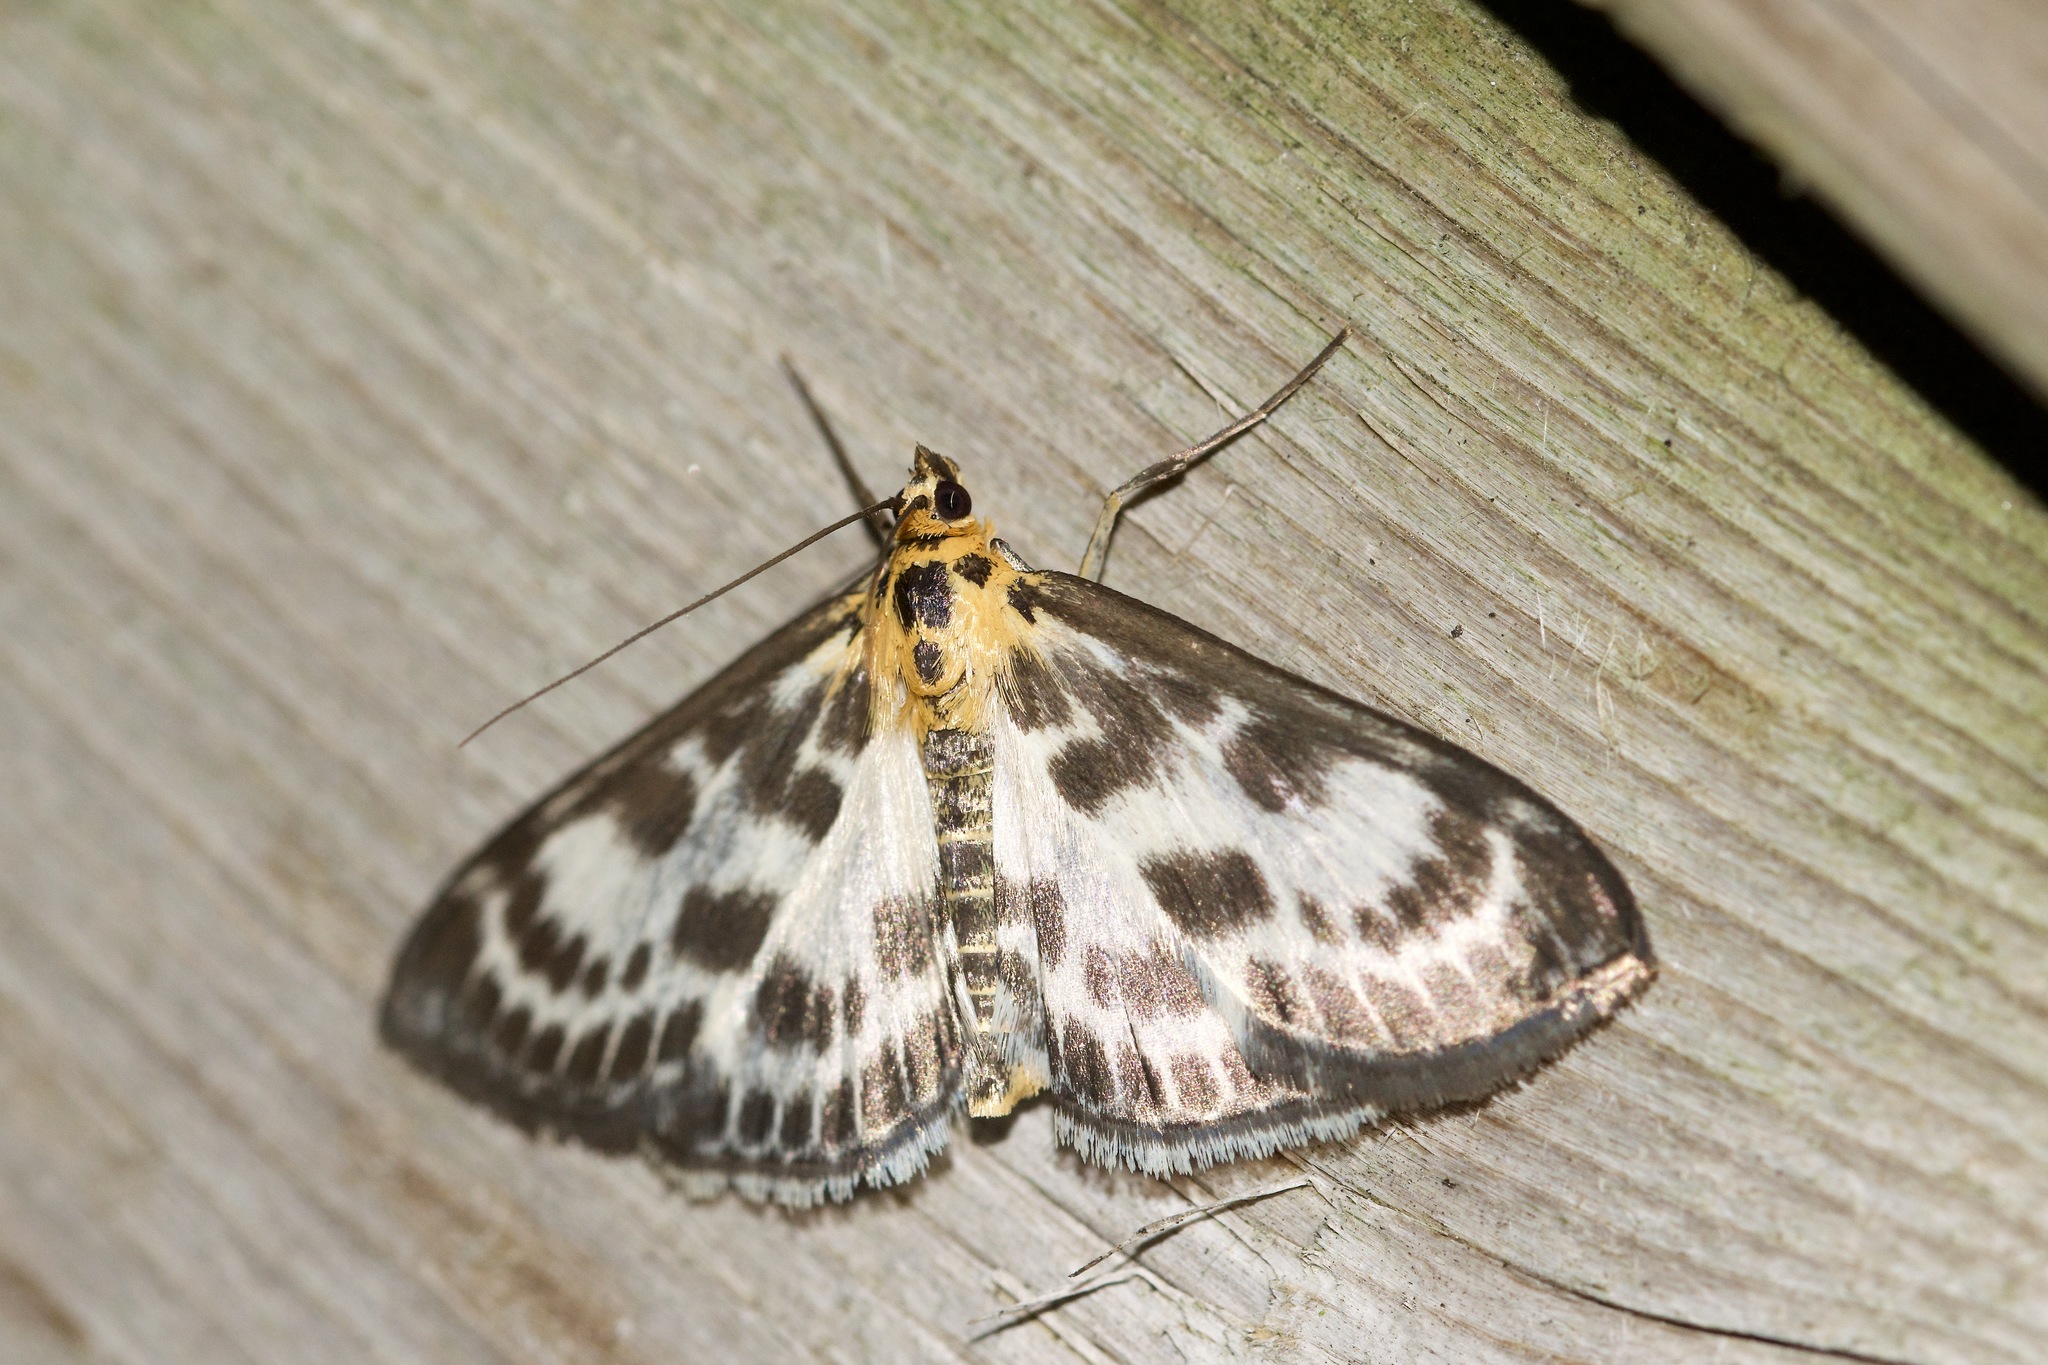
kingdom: Animalia
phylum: Arthropoda
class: Insecta
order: Lepidoptera
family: Crambidae
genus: Anania
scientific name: Anania hortulata
